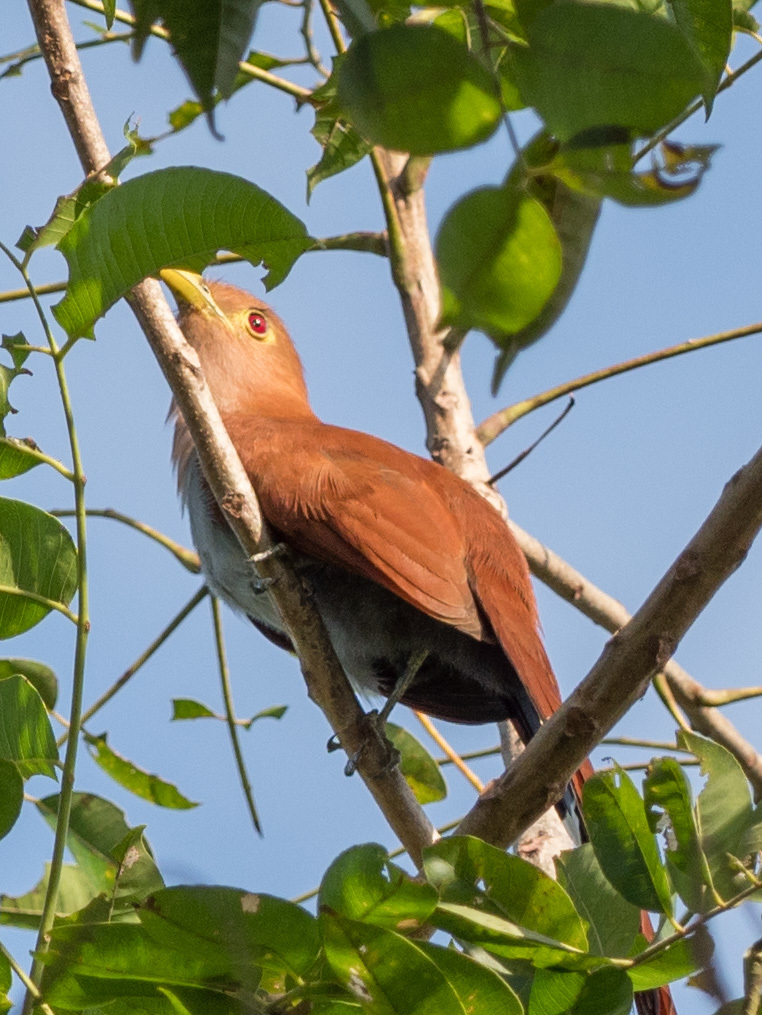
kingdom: Animalia
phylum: Chordata
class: Aves
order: Cuculiformes
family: Cuculidae
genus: Piaya
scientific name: Piaya cayana
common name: Squirrel cuckoo
